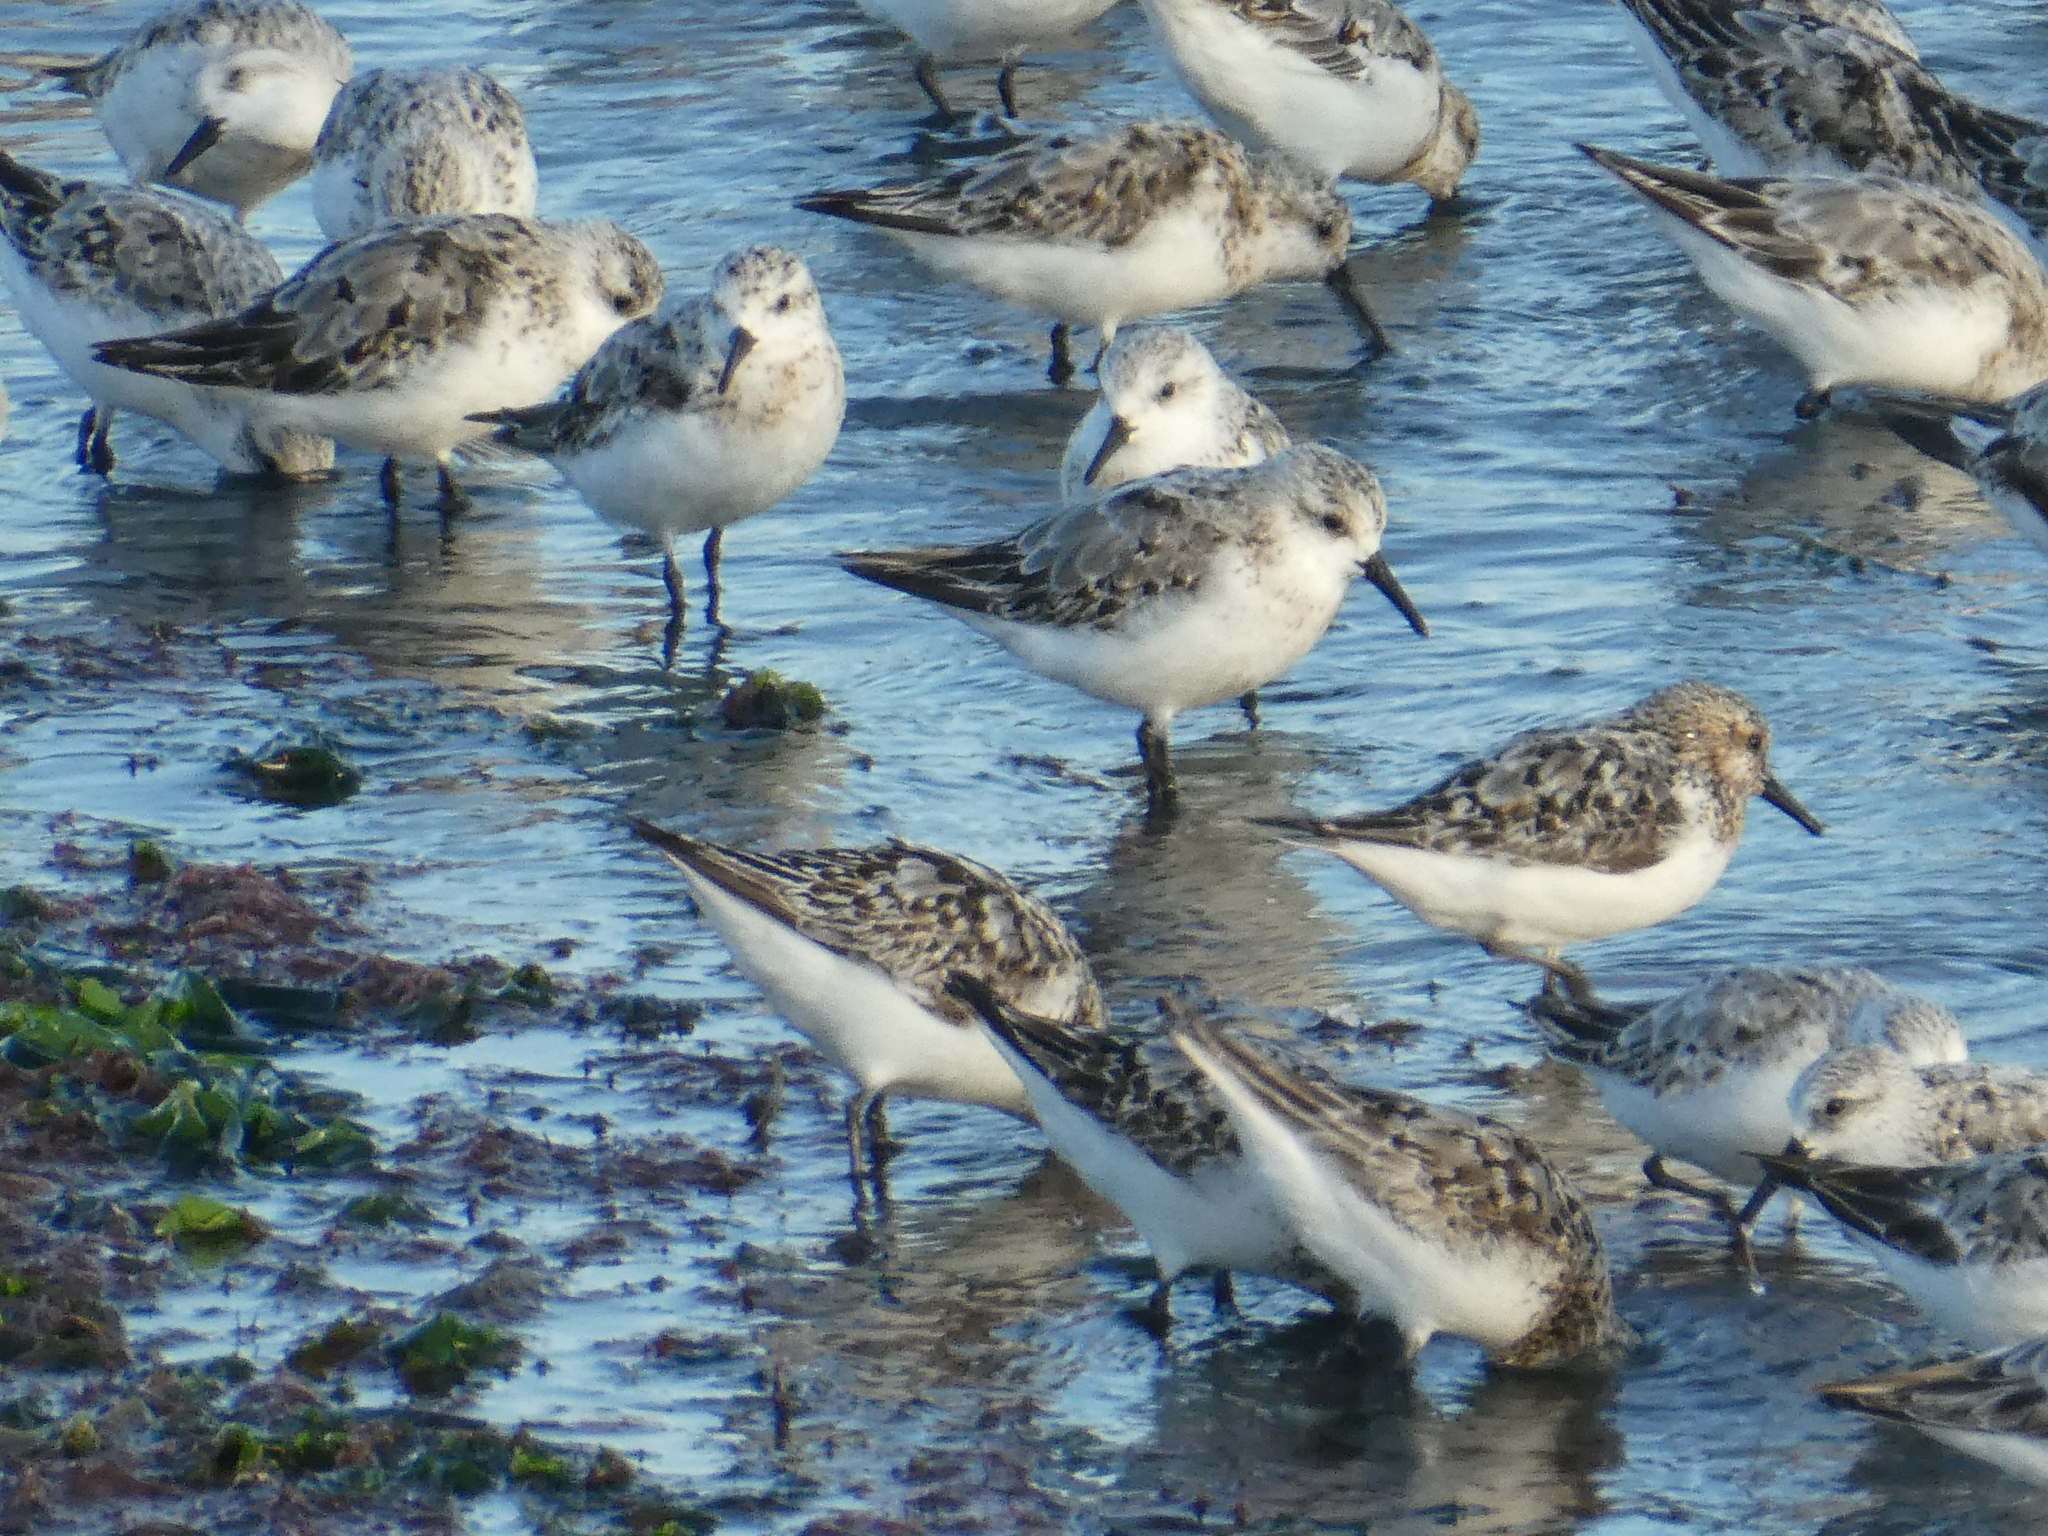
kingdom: Animalia
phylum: Chordata
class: Aves
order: Charadriiformes
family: Scolopacidae
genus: Calidris
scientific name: Calidris alba
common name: Sanderling
